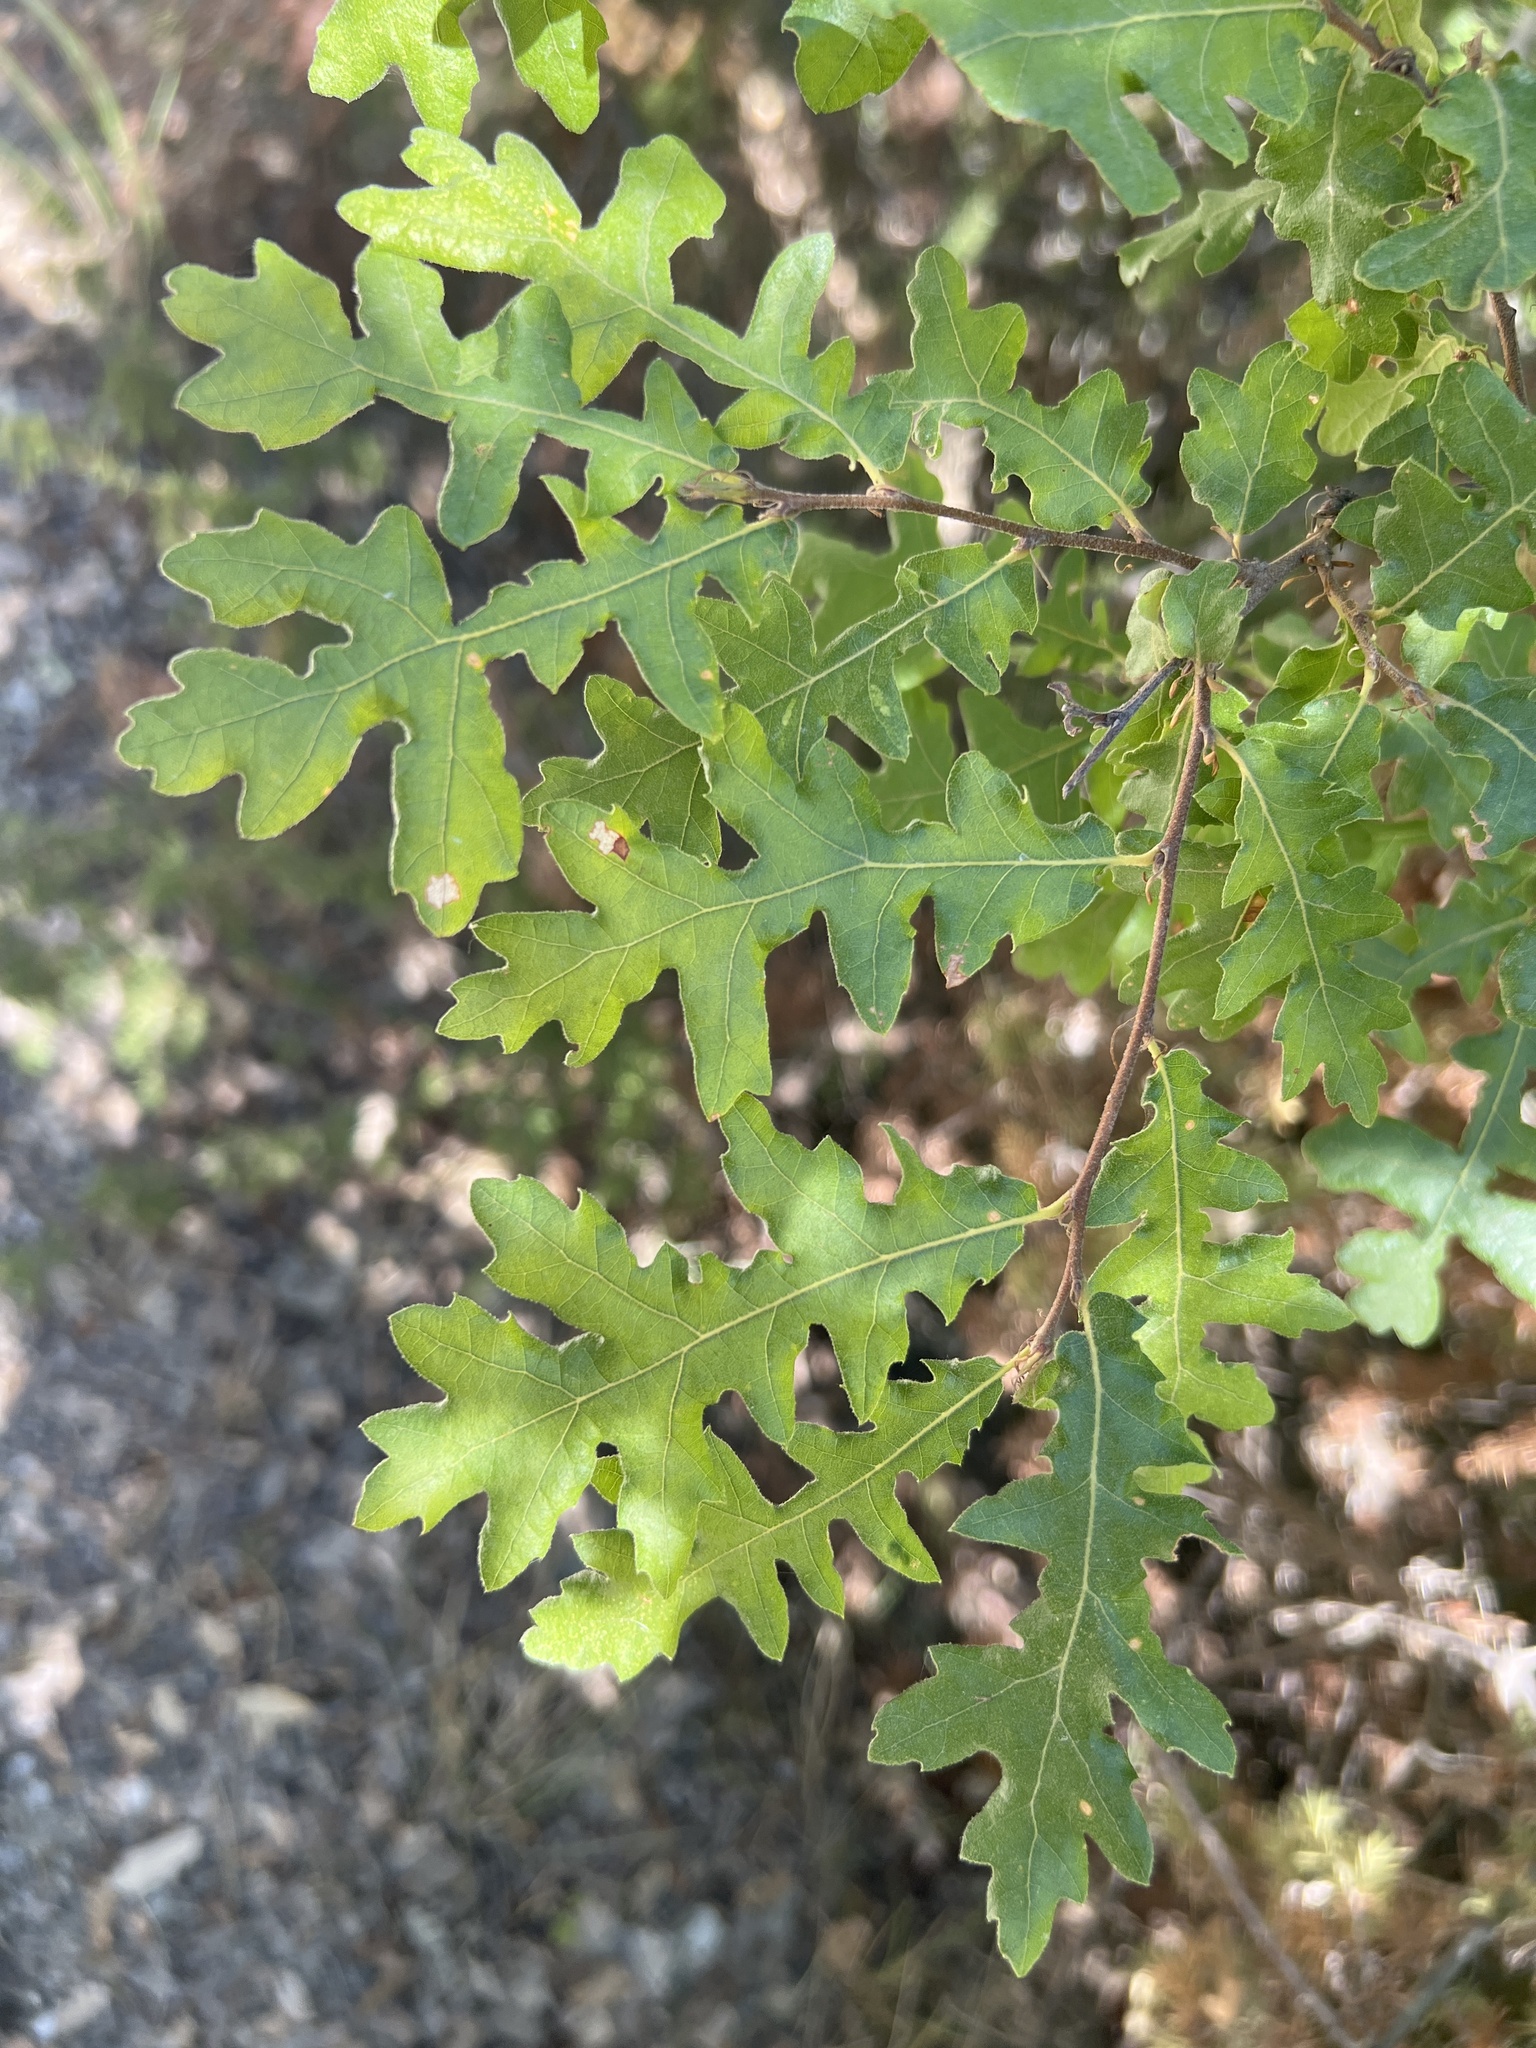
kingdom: Plantae
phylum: Tracheophyta
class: Magnoliopsida
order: Fagales
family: Fagaceae
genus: Quercus
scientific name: Quercus cerris
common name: Turkey oak
